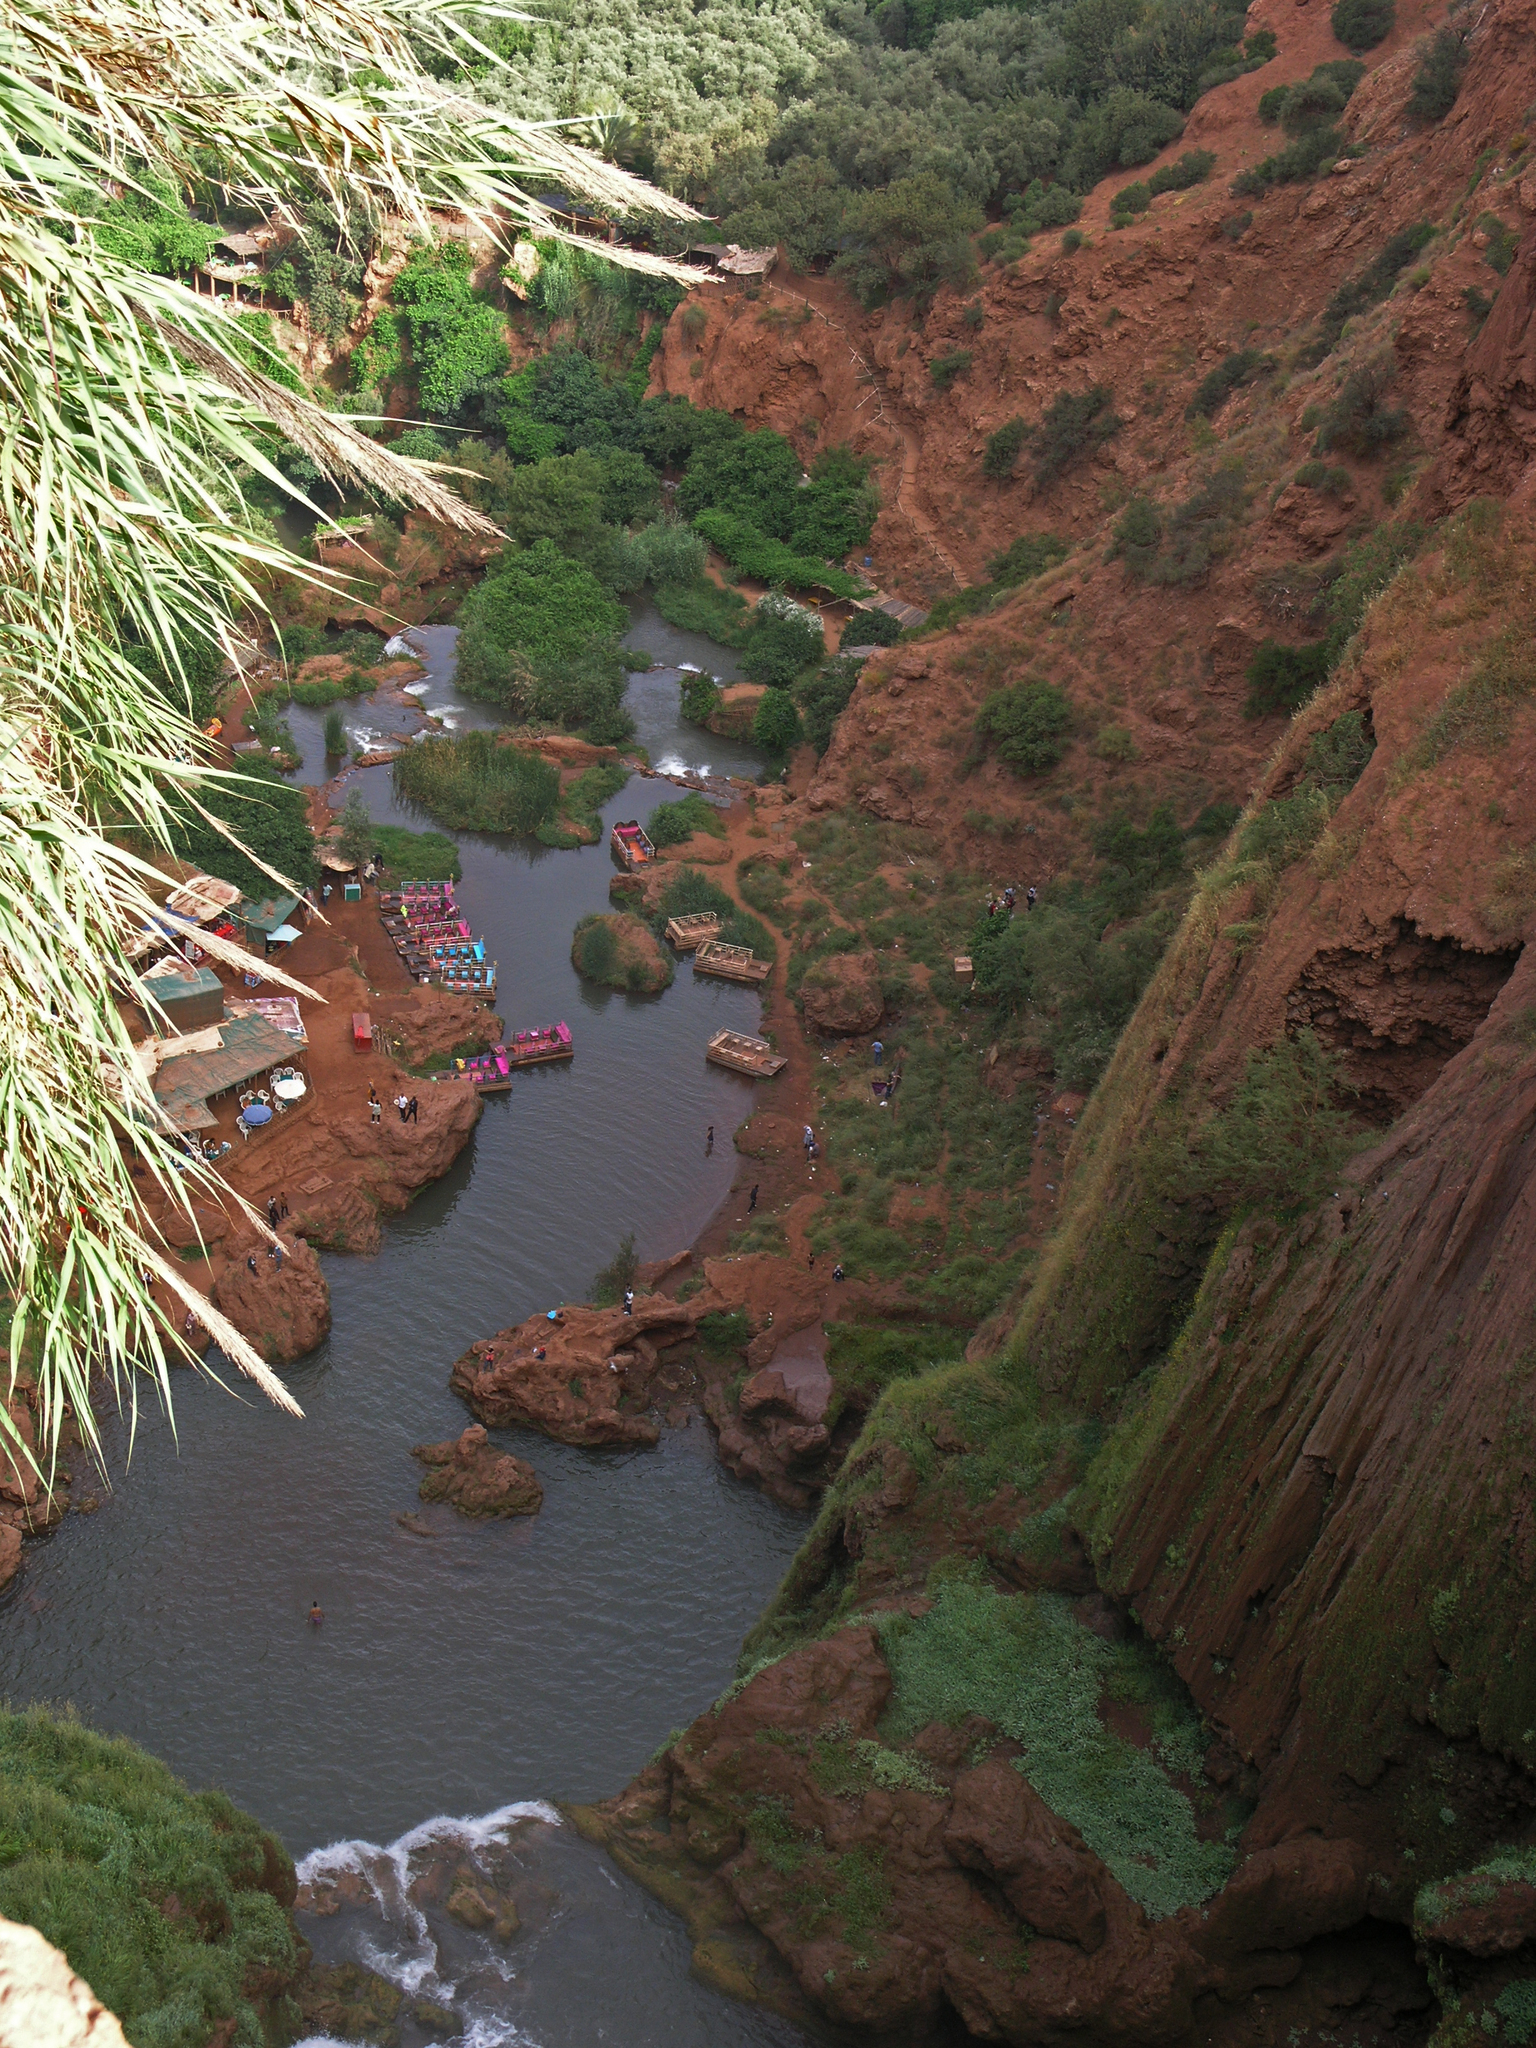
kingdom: Plantae
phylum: Tracheophyta
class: Liliopsida
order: Poales
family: Poaceae
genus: Arundo
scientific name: Arundo donax
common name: Giant reed
